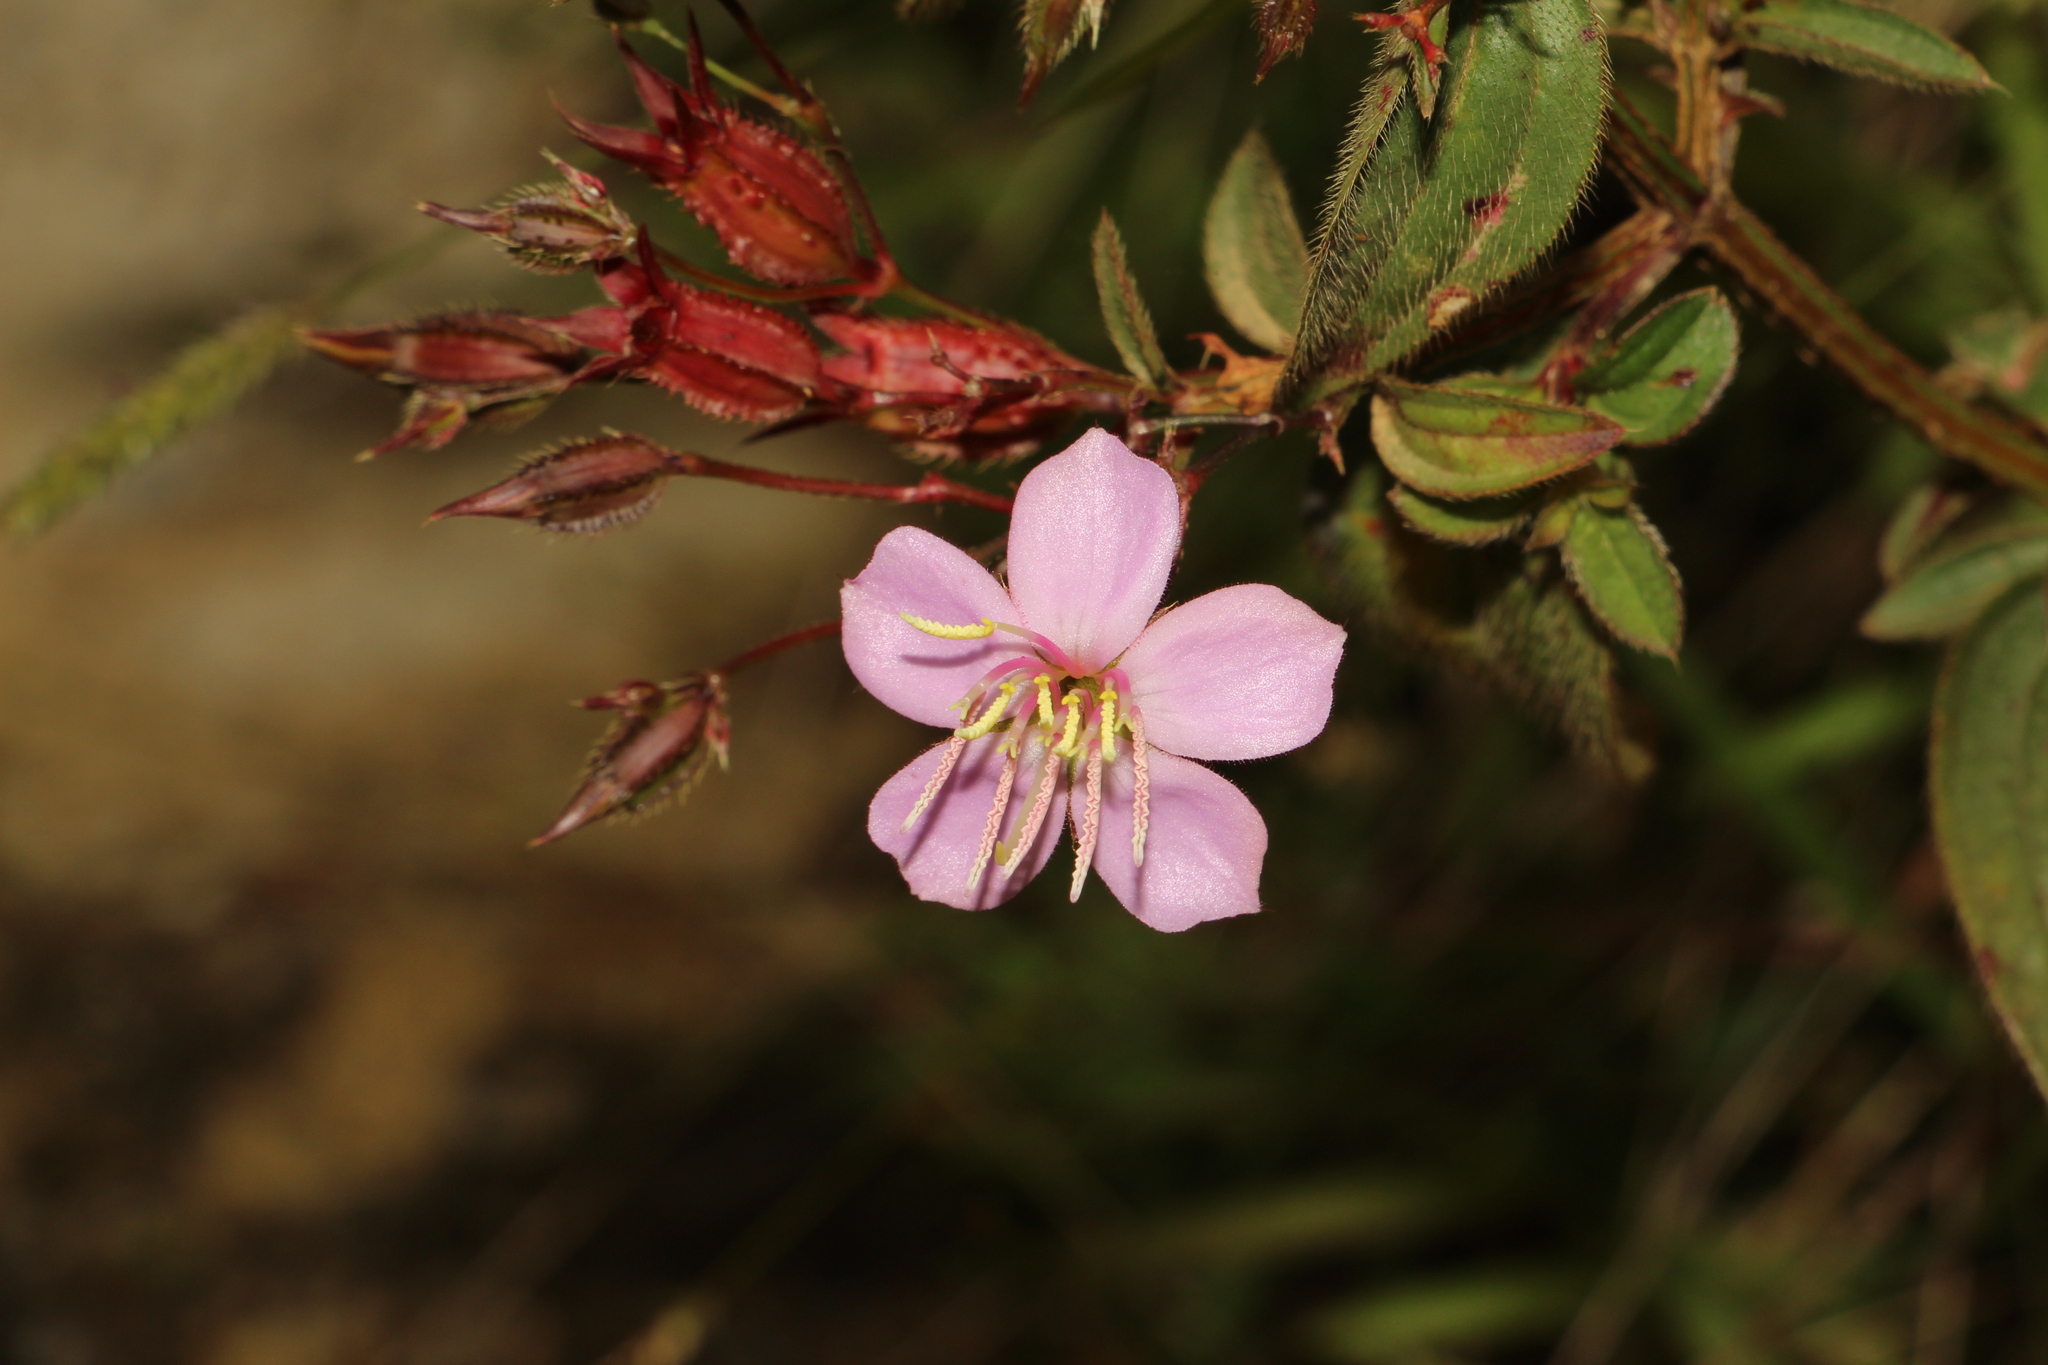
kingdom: Plantae
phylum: Tracheophyta
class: Magnoliopsida
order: Myrtales
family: Melastomataceae
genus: Pterogastra
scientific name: Pterogastra divaricata
